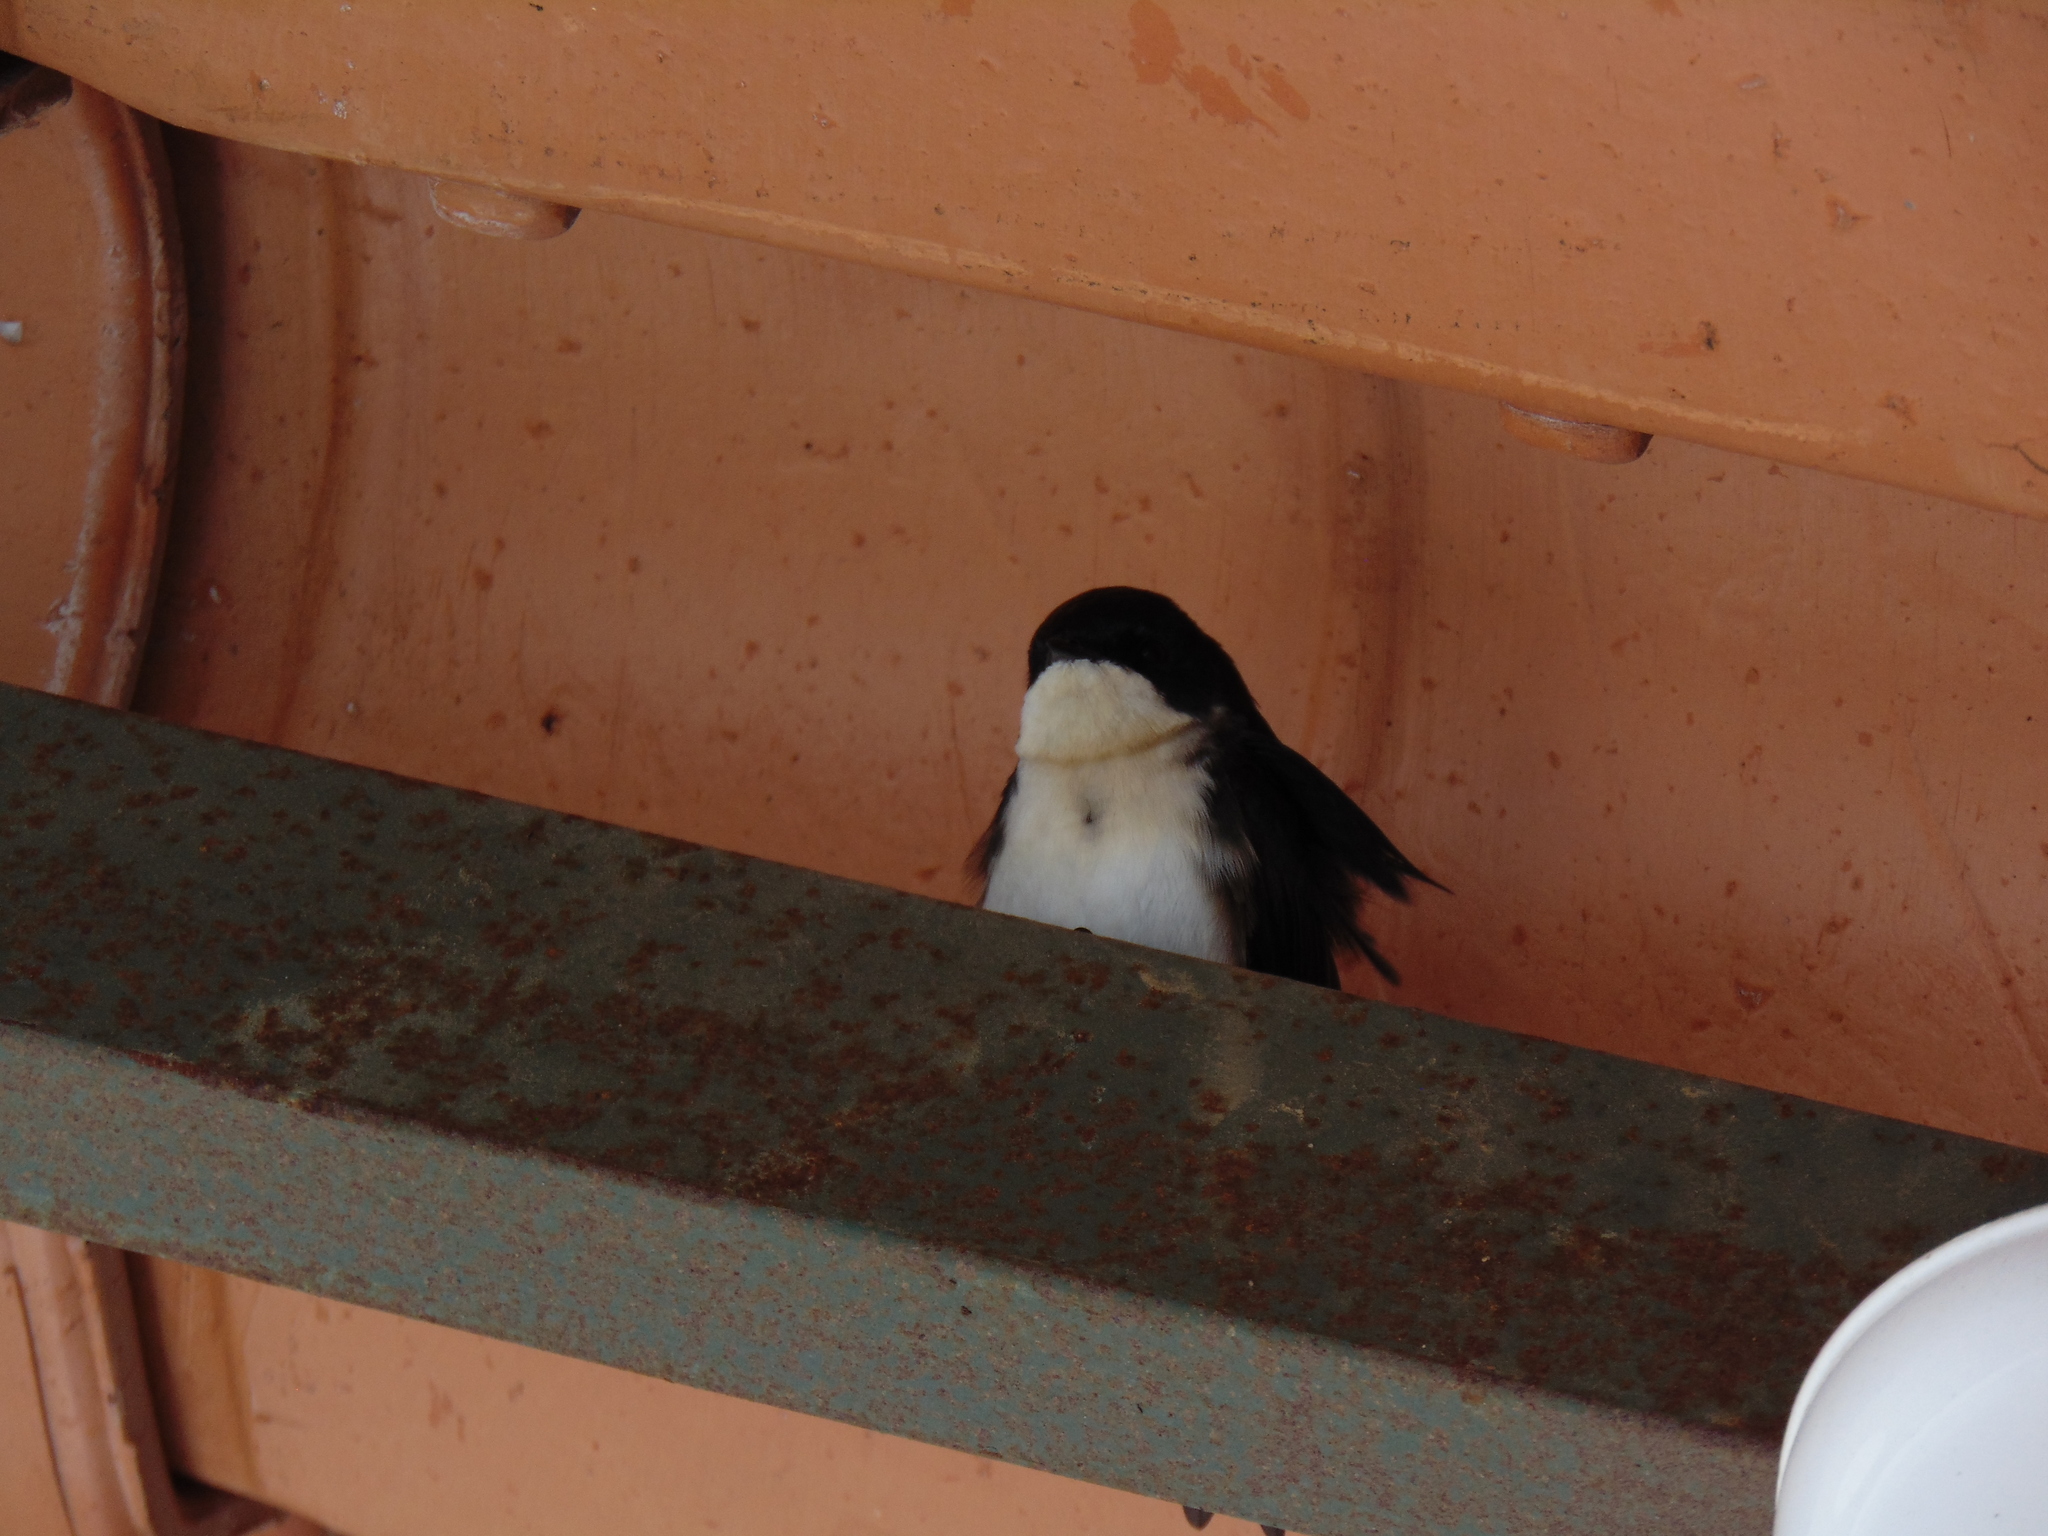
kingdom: Animalia
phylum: Chordata
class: Aves
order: Passeriformes
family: Hirundinidae
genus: Notiochelidon
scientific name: Notiochelidon cyanoleuca
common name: Blue-and-white swallow
